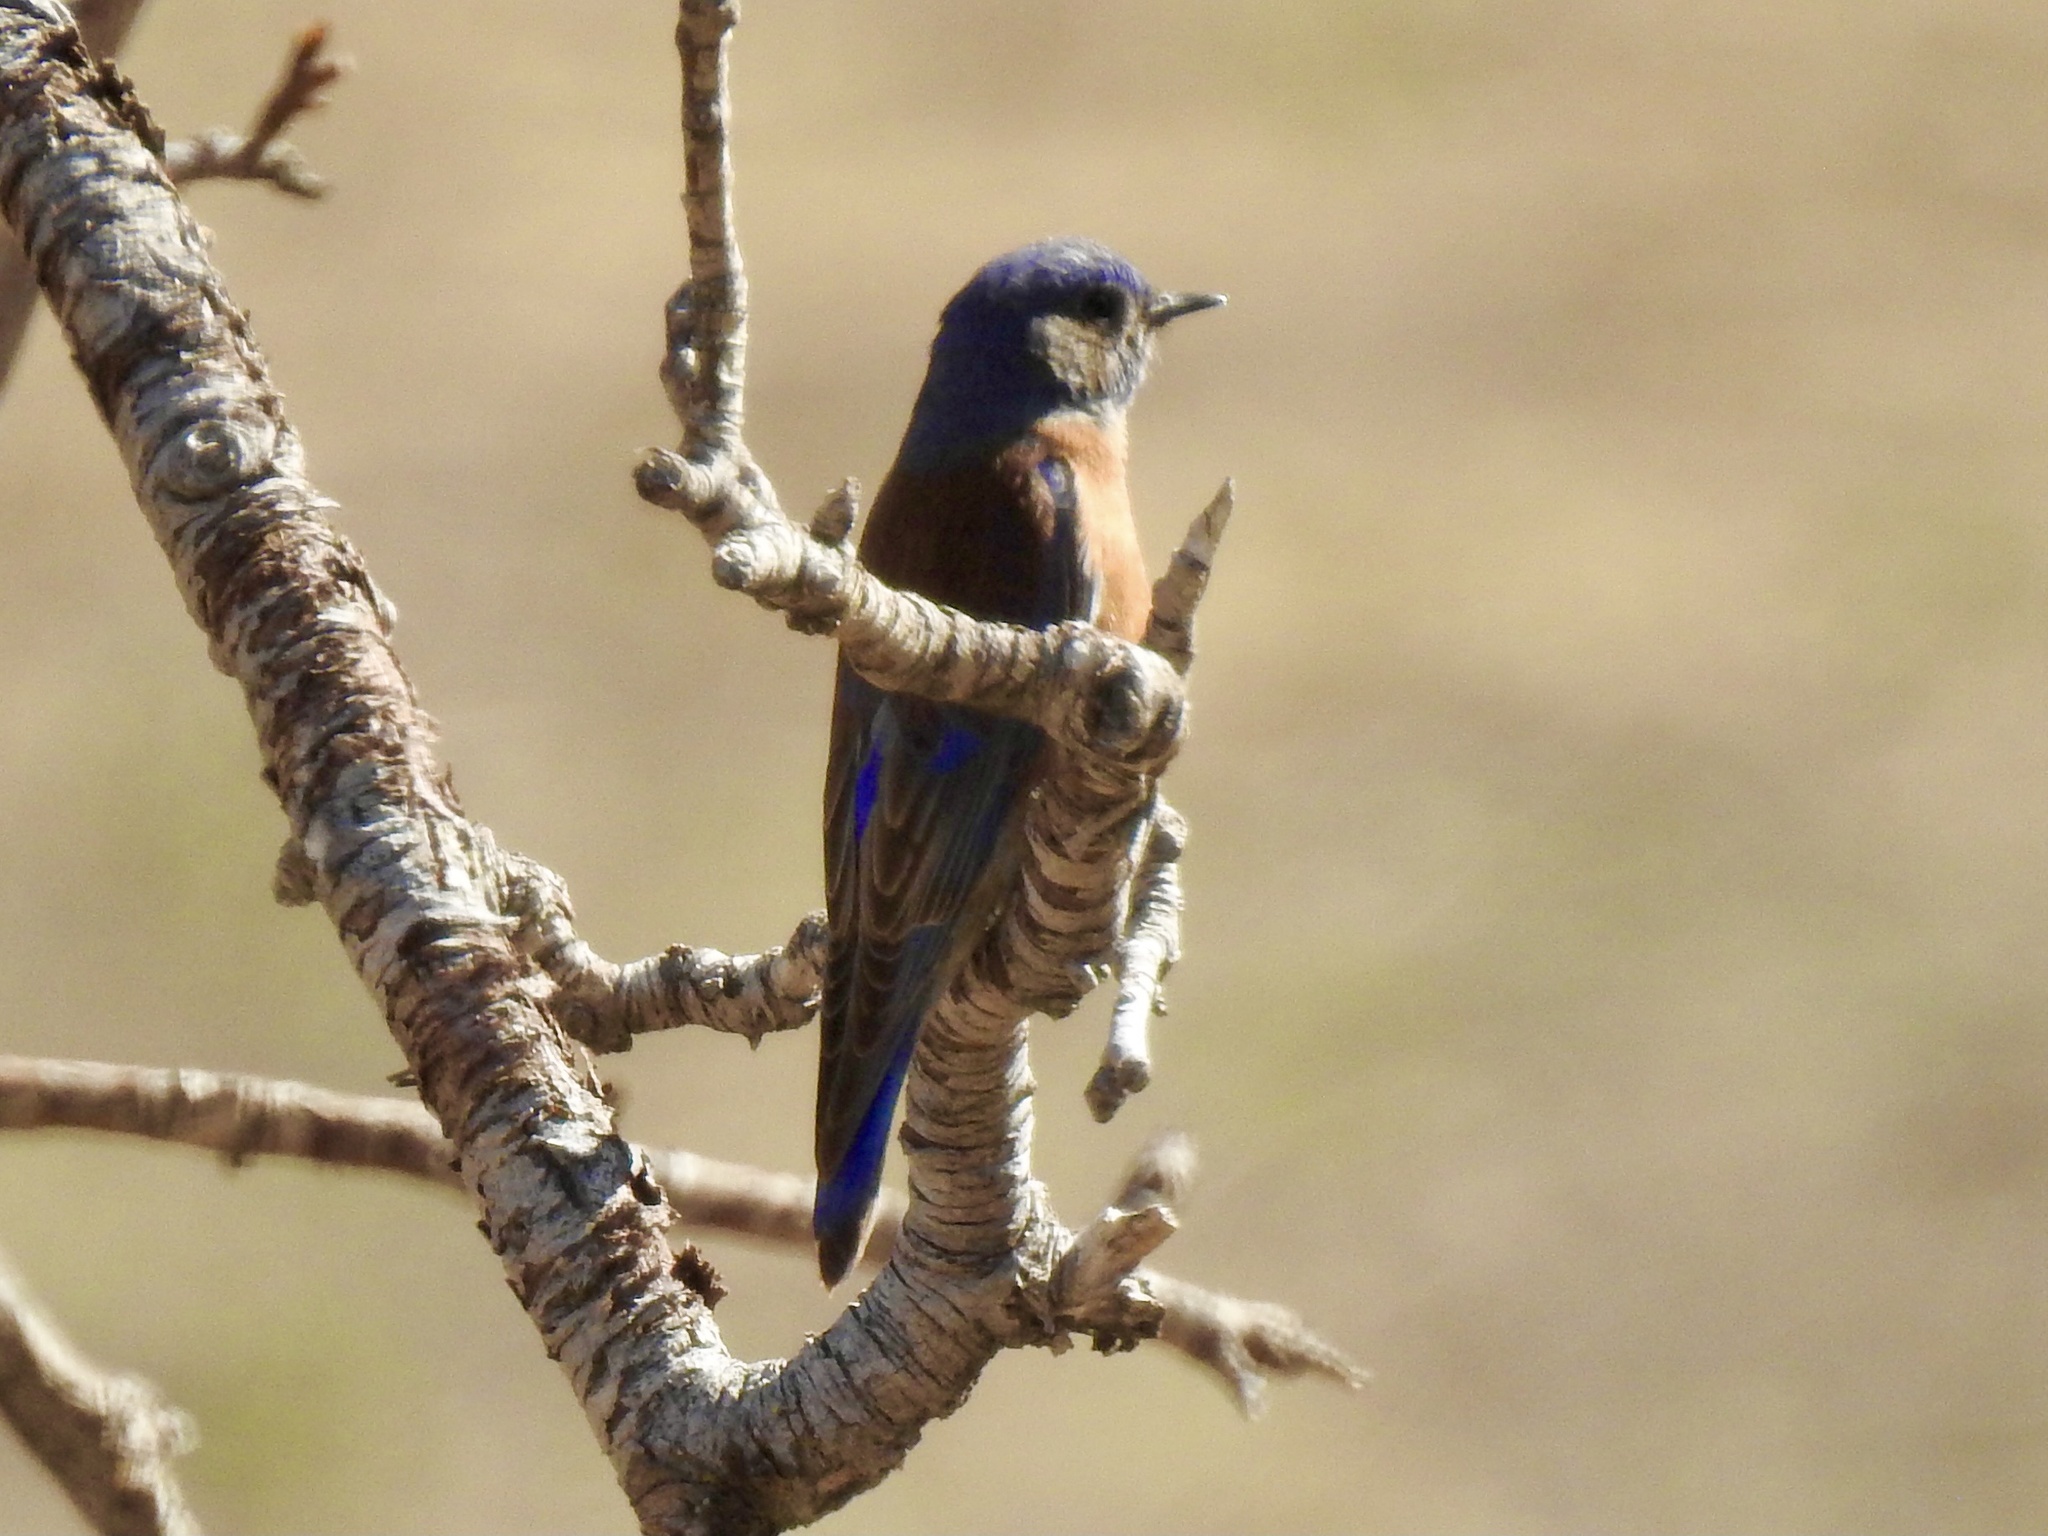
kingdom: Animalia
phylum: Chordata
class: Aves
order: Passeriformes
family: Turdidae
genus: Sialia
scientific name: Sialia mexicana
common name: Western bluebird
